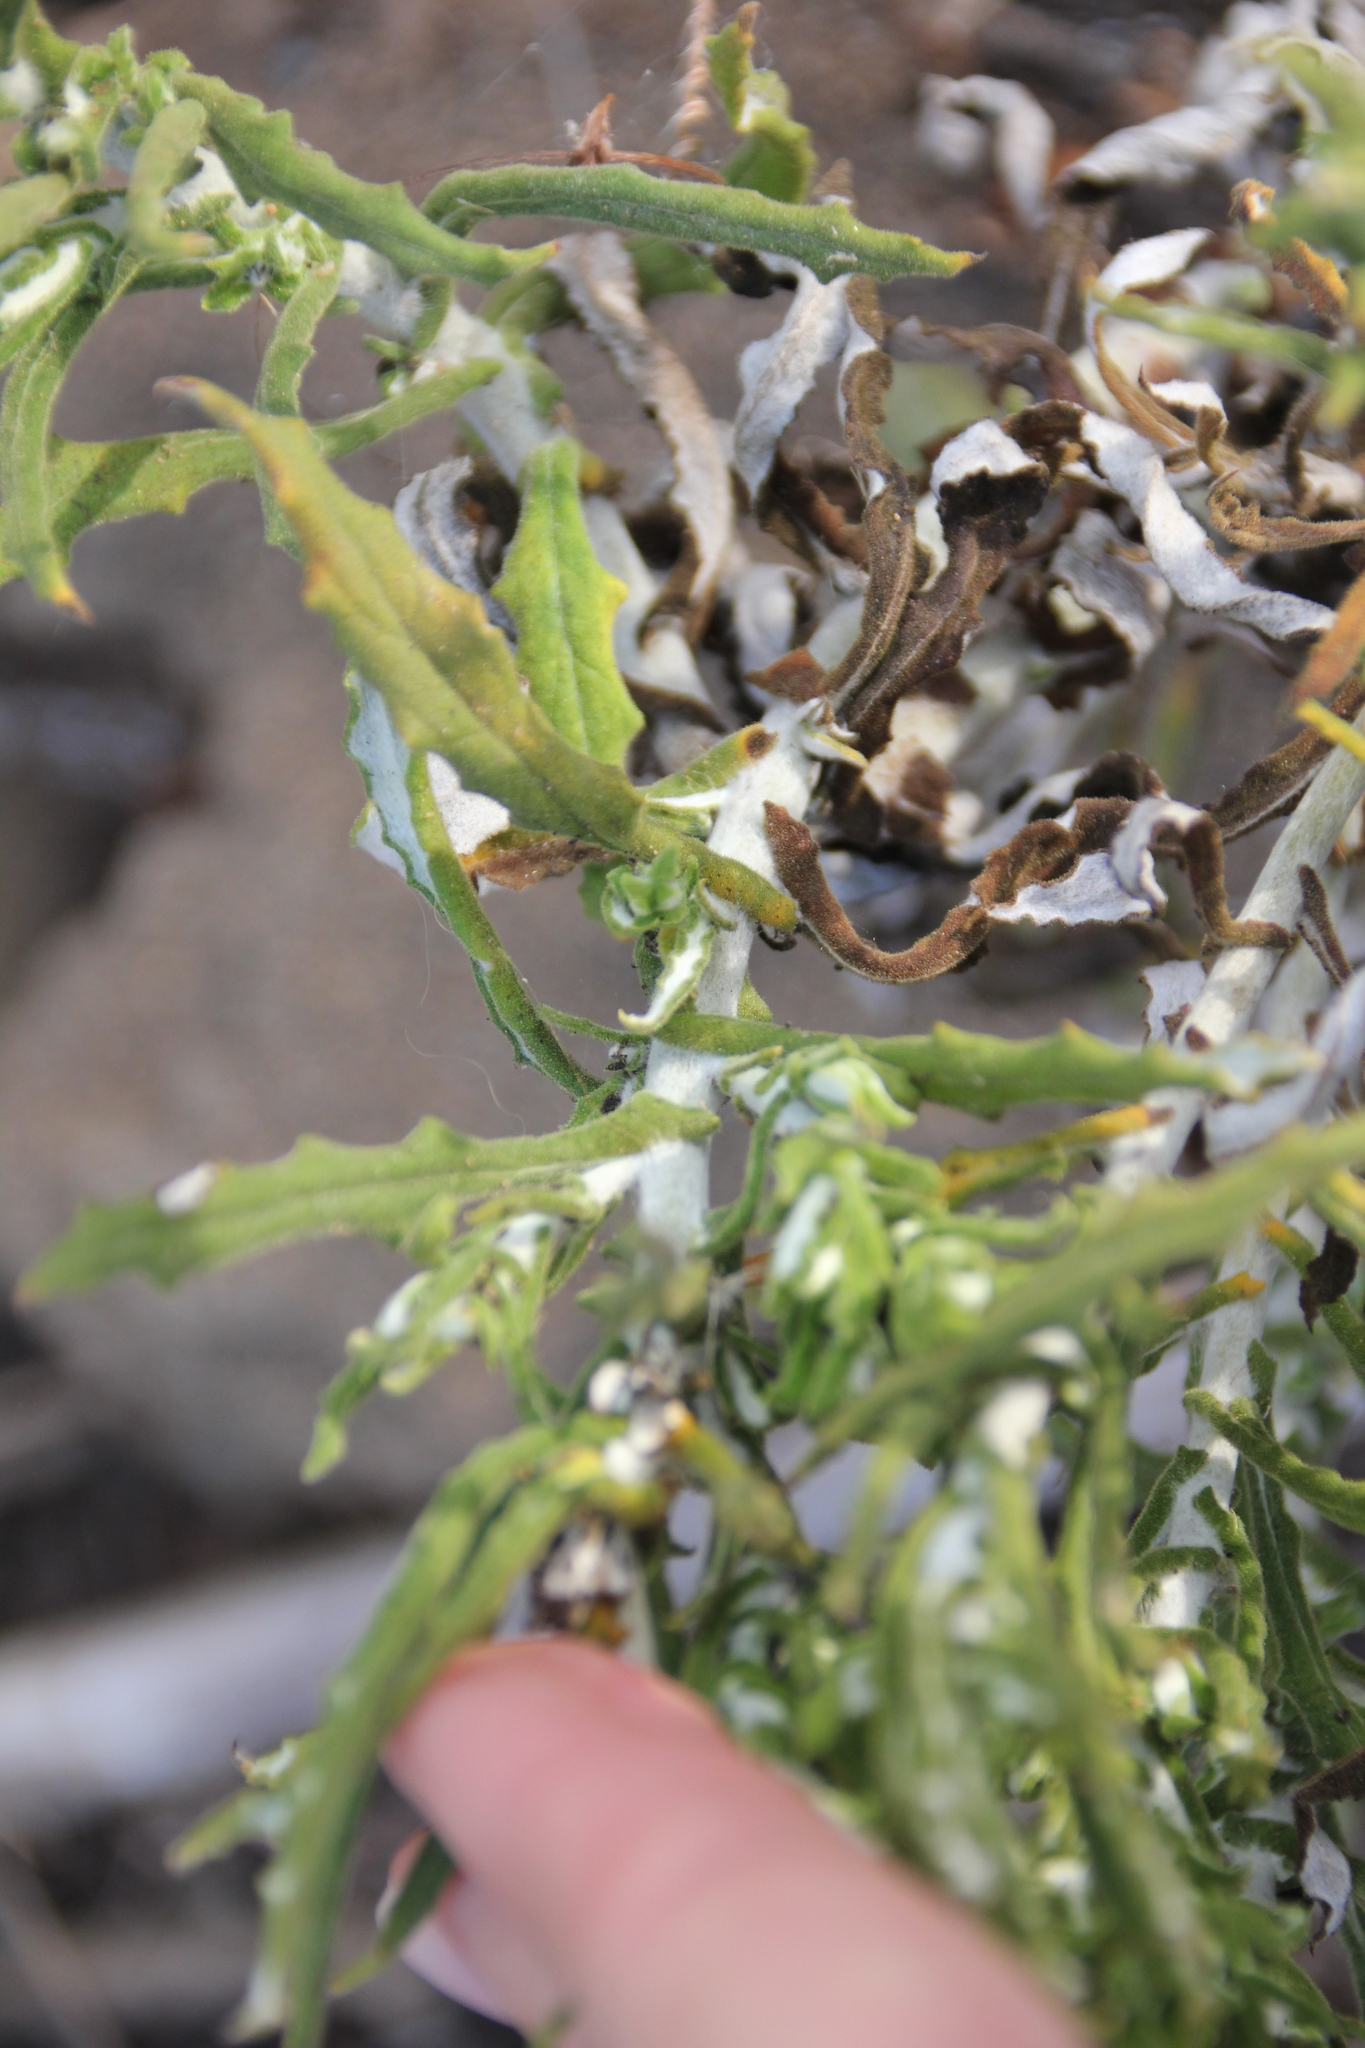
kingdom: Plantae
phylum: Tracheophyta
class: Magnoliopsida
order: Asterales
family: Asteraceae
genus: Pseudognaphalium
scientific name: Pseudognaphalium biolettii
